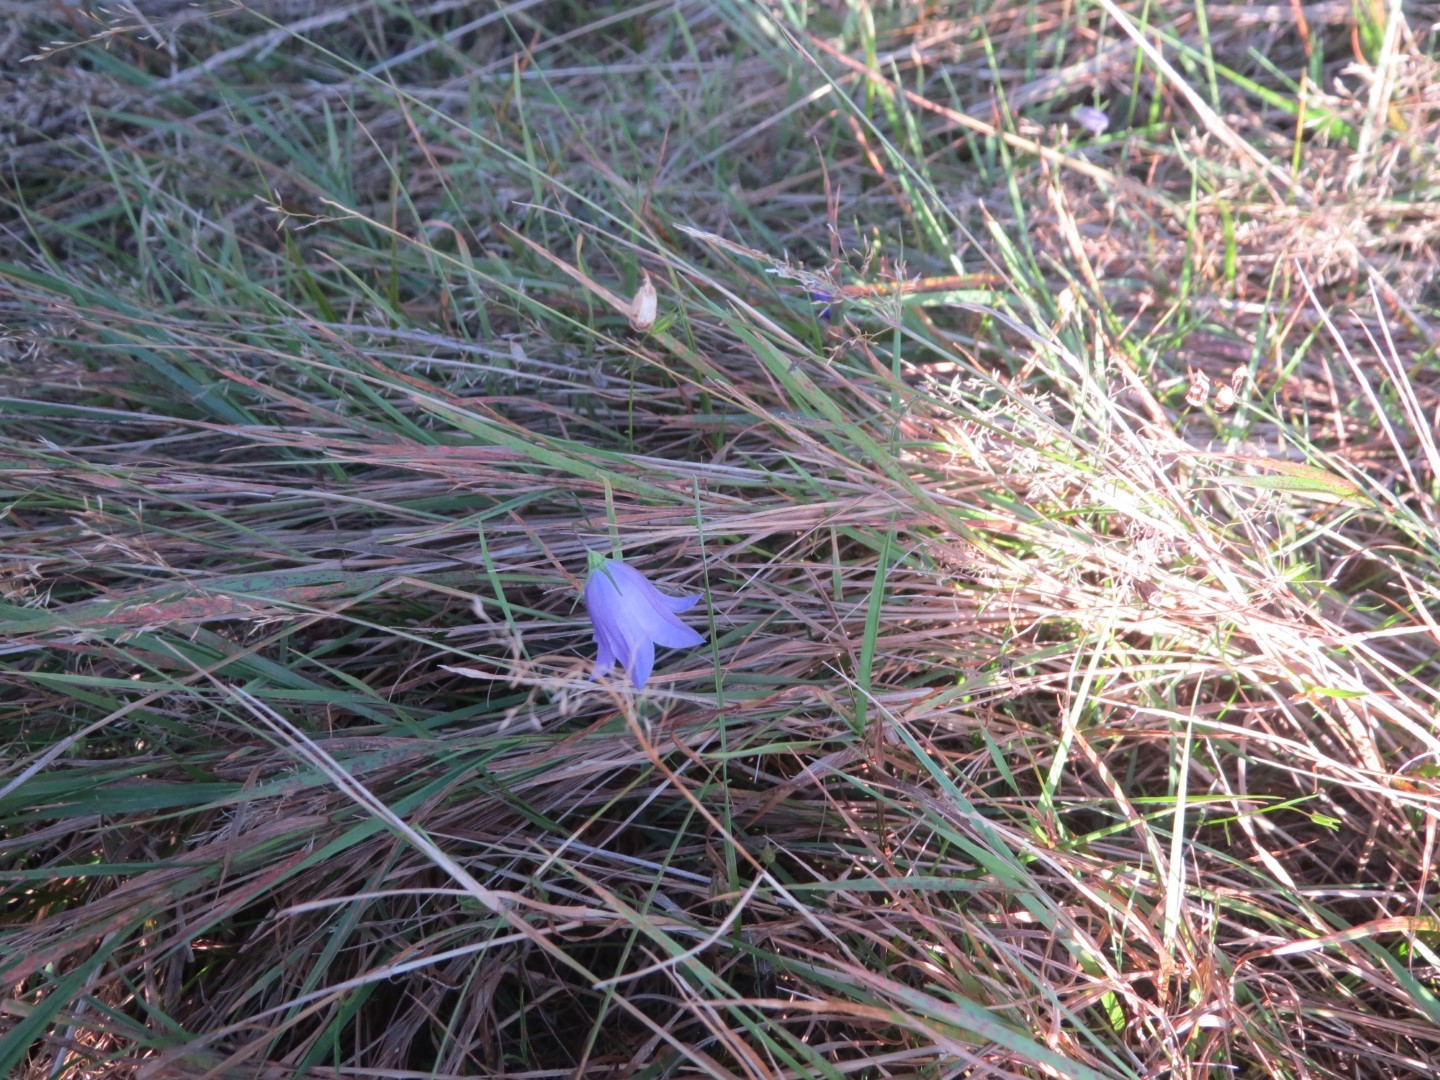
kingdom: Plantae
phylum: Tracheophyta
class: Magnoliopsida
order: Asterales
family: Campanulaceae
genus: Campanula
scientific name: Campanula rotundifolia
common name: Harebell
